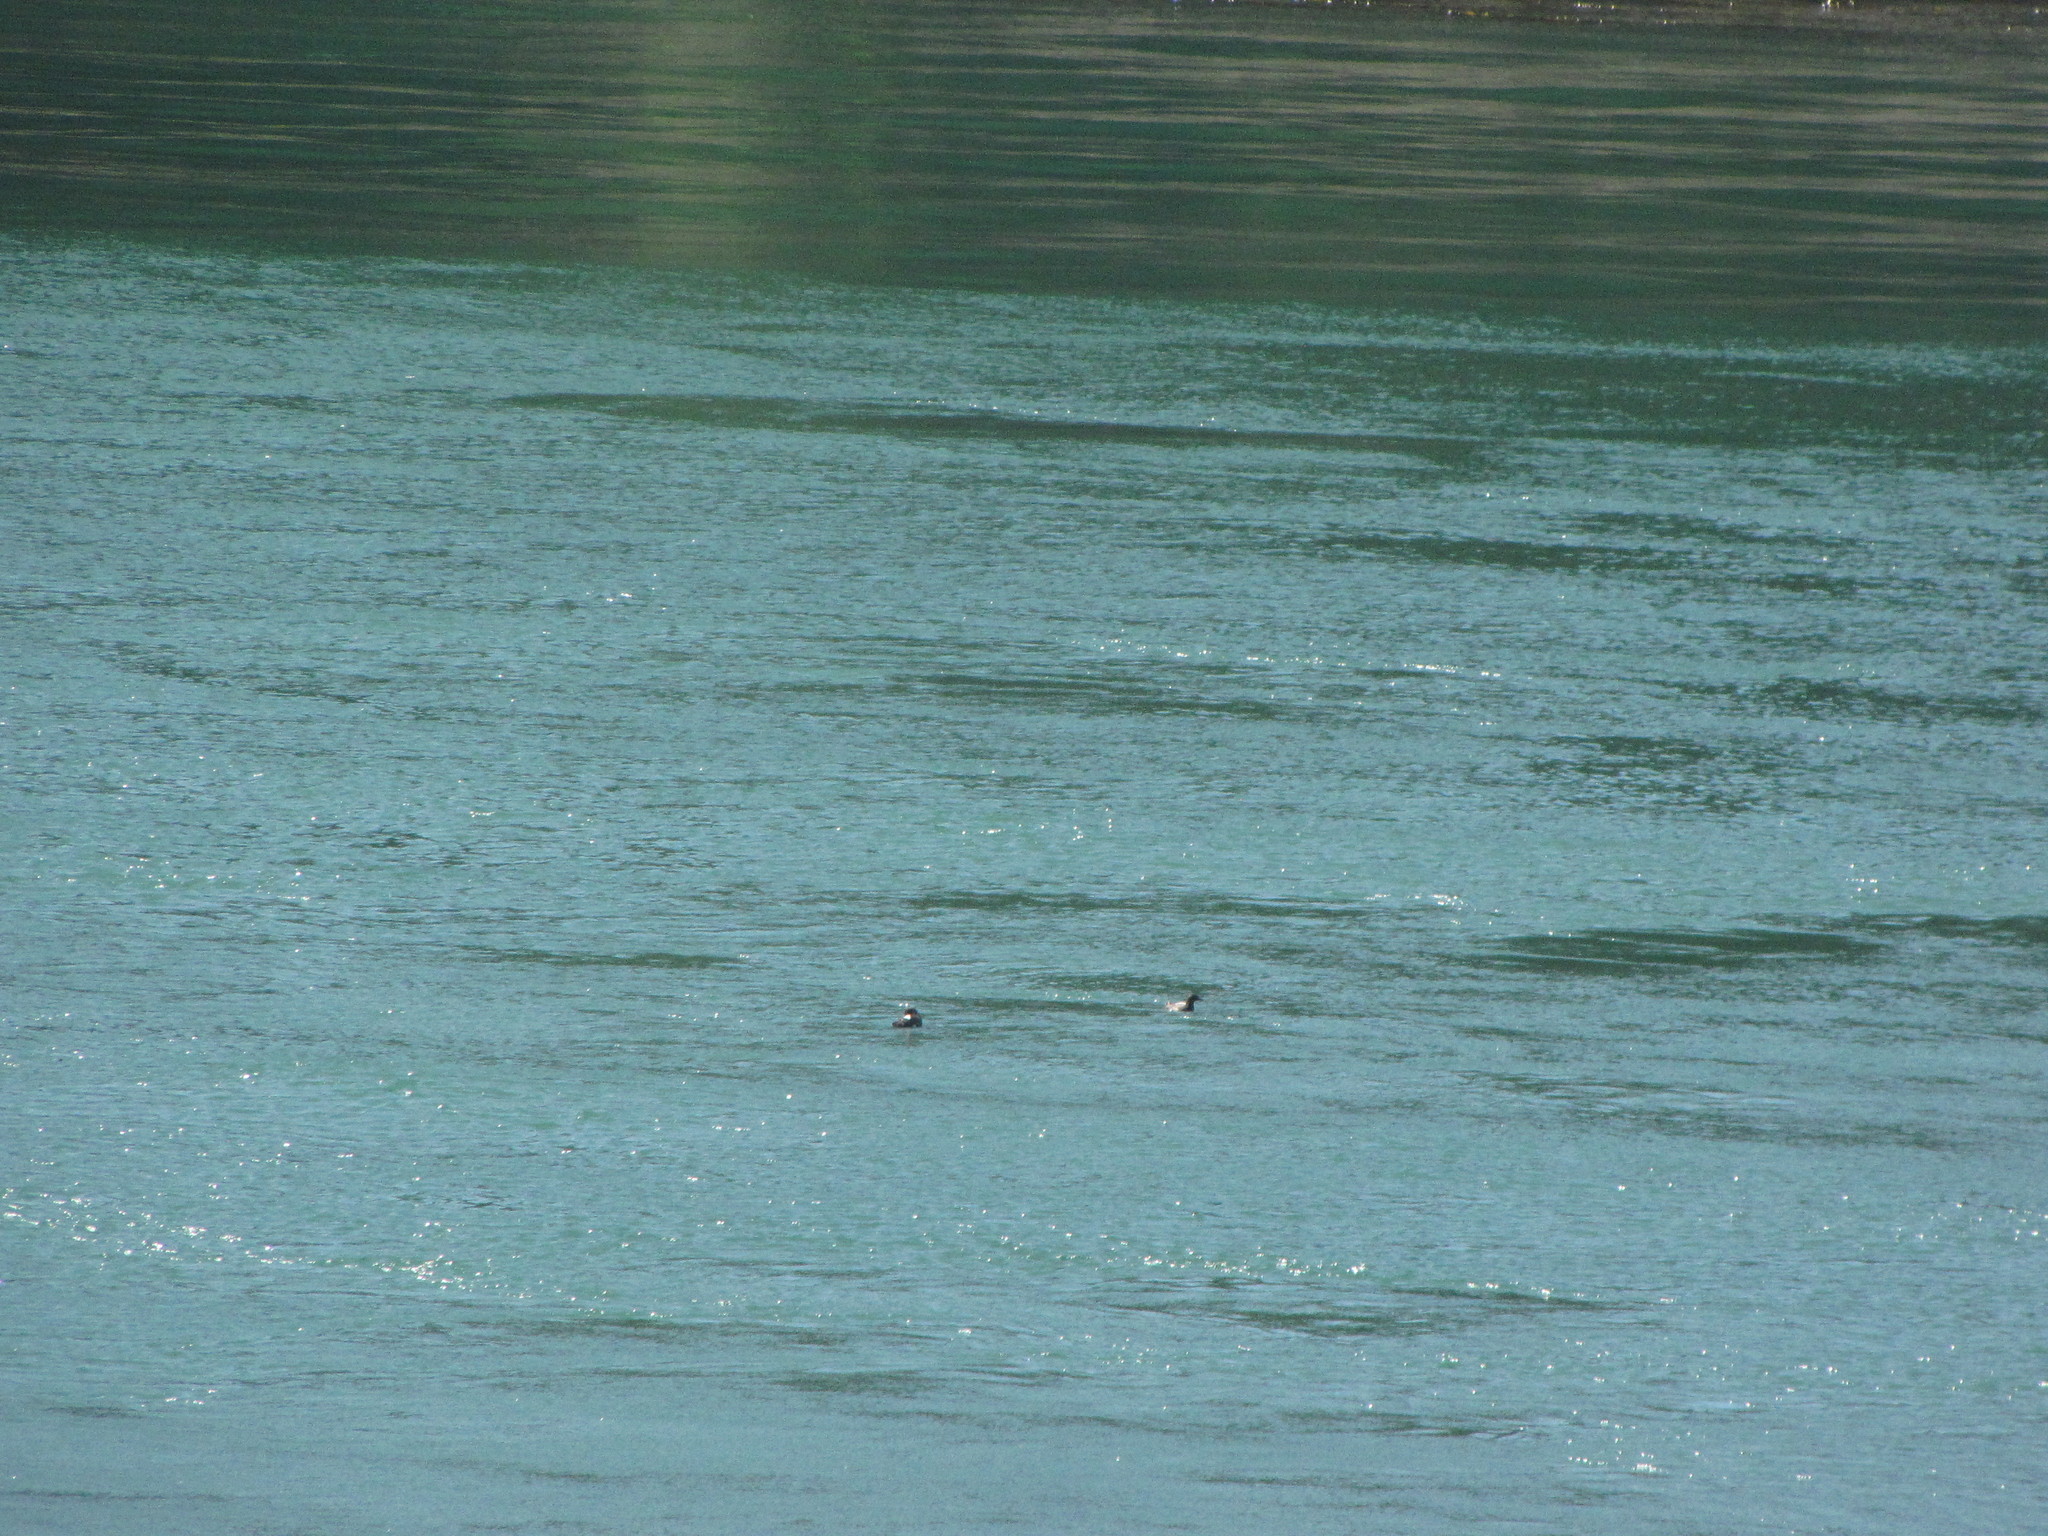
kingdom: Animalia
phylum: Chordata
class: Aves
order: Charadriiformes
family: Alcidae
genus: Cepphus
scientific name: Cepphus columba
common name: Pigeon guillemot
